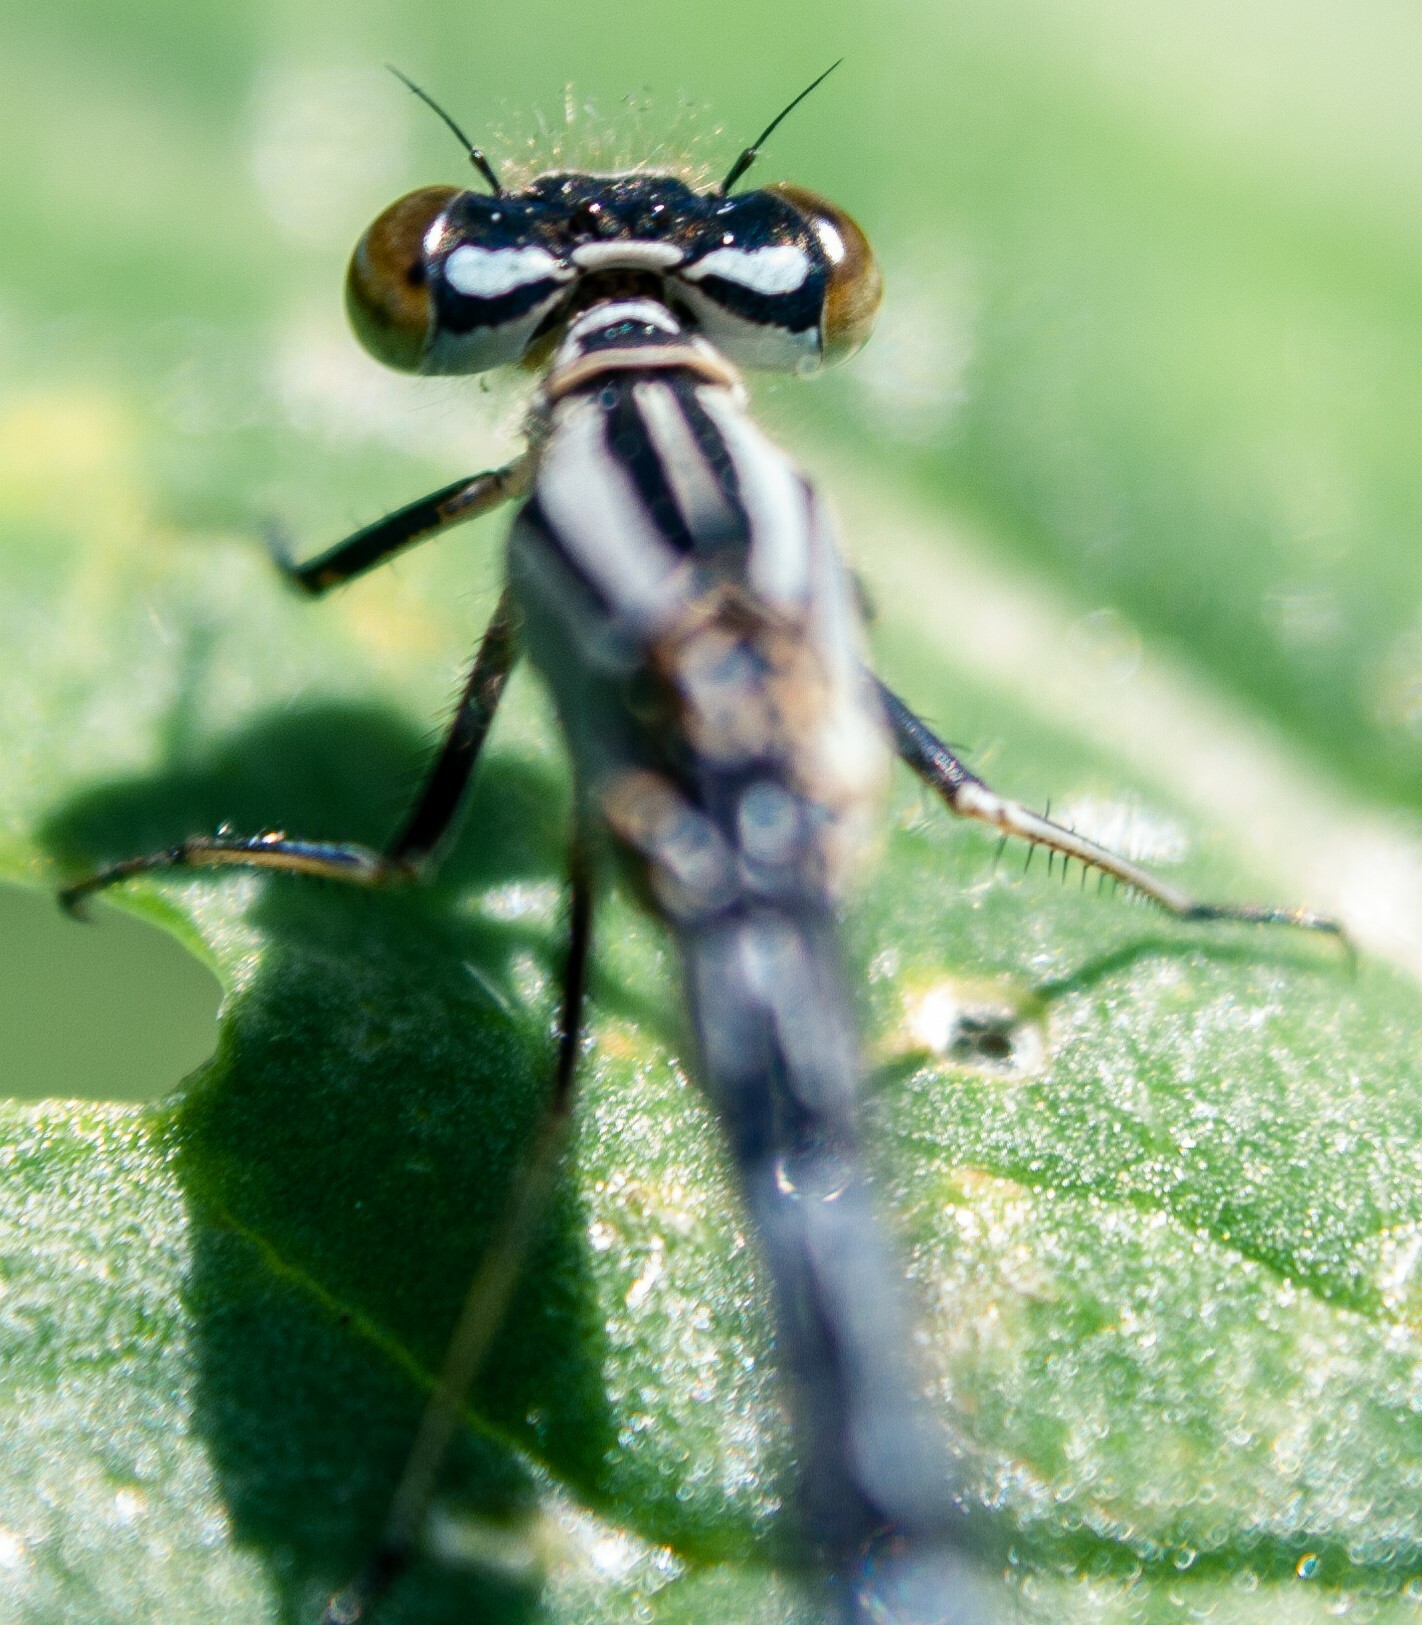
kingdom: Animalia
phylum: Arthropoda
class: Insecta
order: Odonata
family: Coenagrionidae
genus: Enallagma
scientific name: Enallagma cyathigerum
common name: Common blue damselfly
